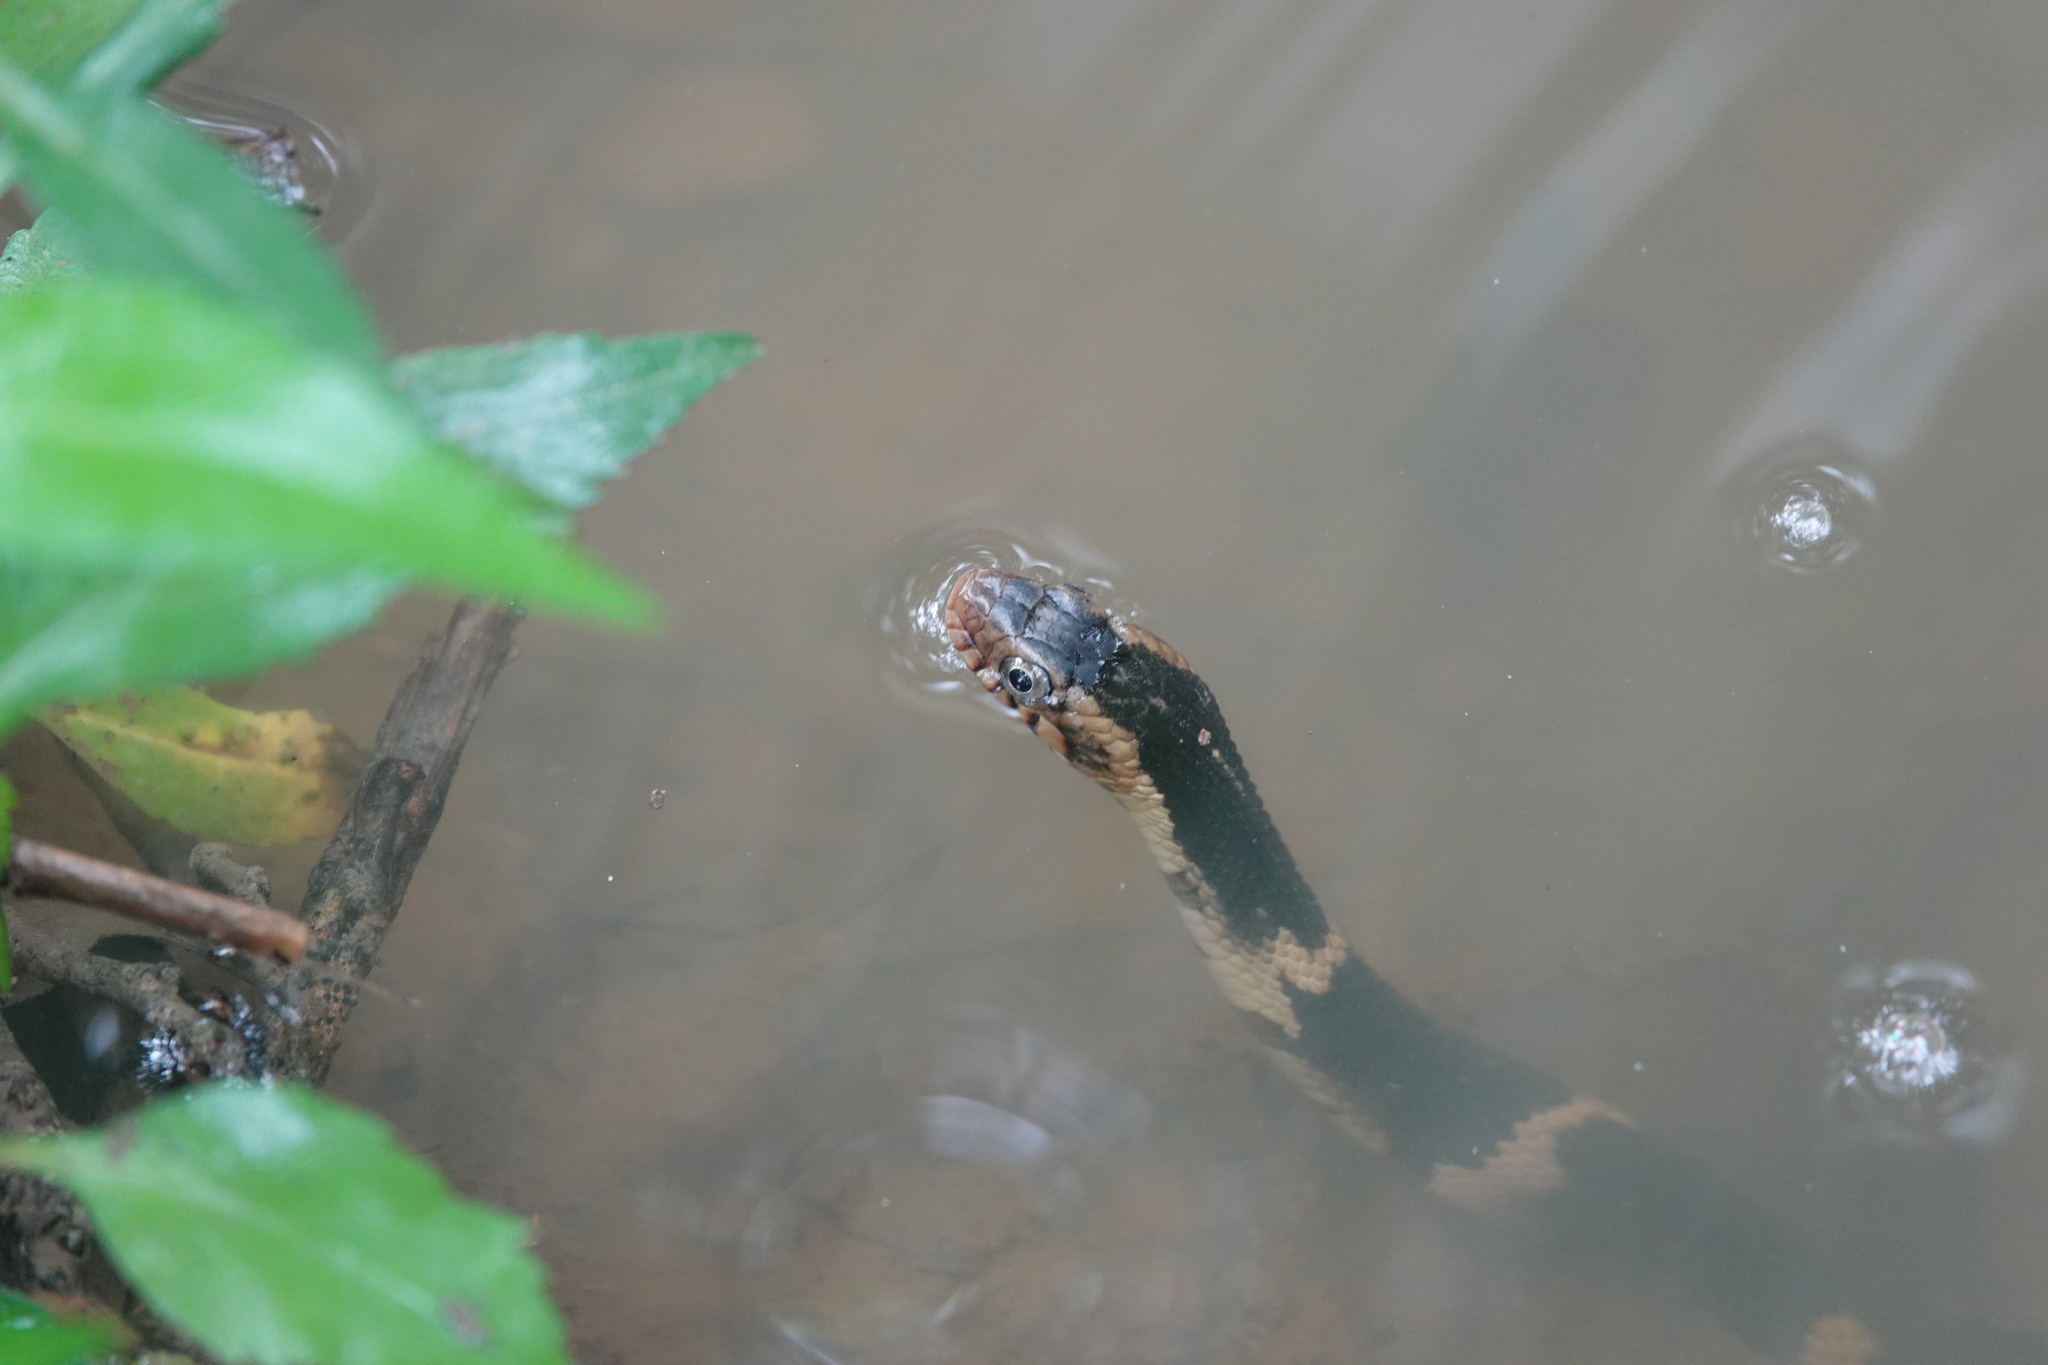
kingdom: Animalia
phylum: Chordata
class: Squamata
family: Colubridae
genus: Nerodia
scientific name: Nerodia fasciata
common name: Southern water snake
